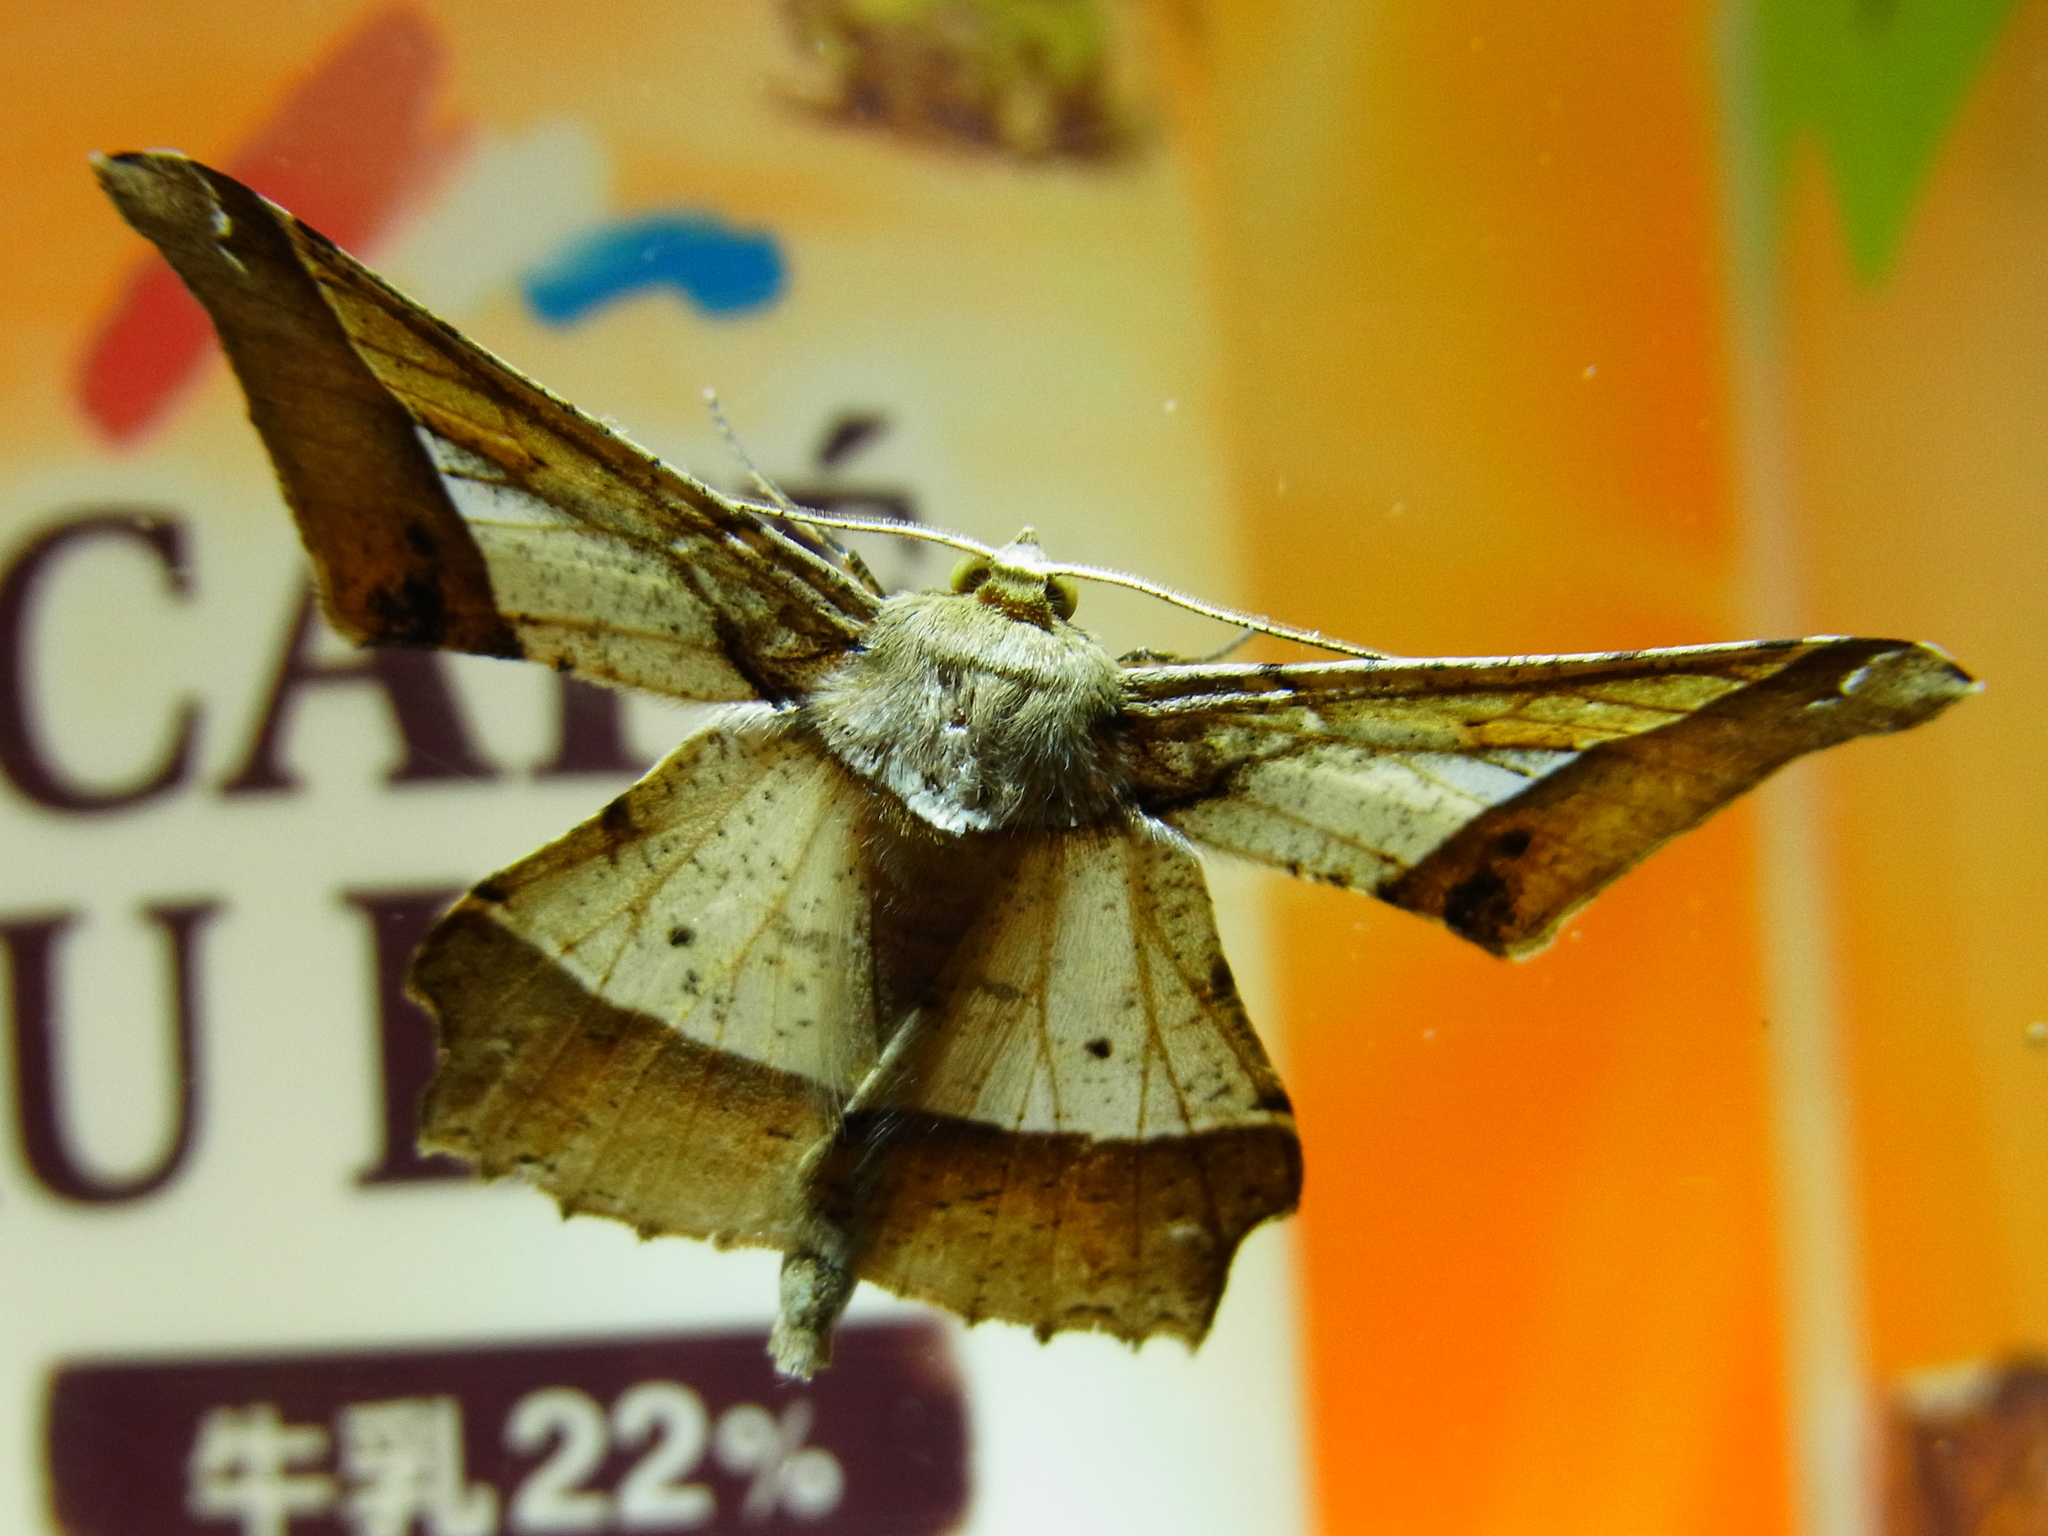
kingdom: Animalia
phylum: Arthropoda
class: Insecta
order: Lepidoptera
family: Geometridae
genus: Krananda
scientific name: Krananda latimarginaria
